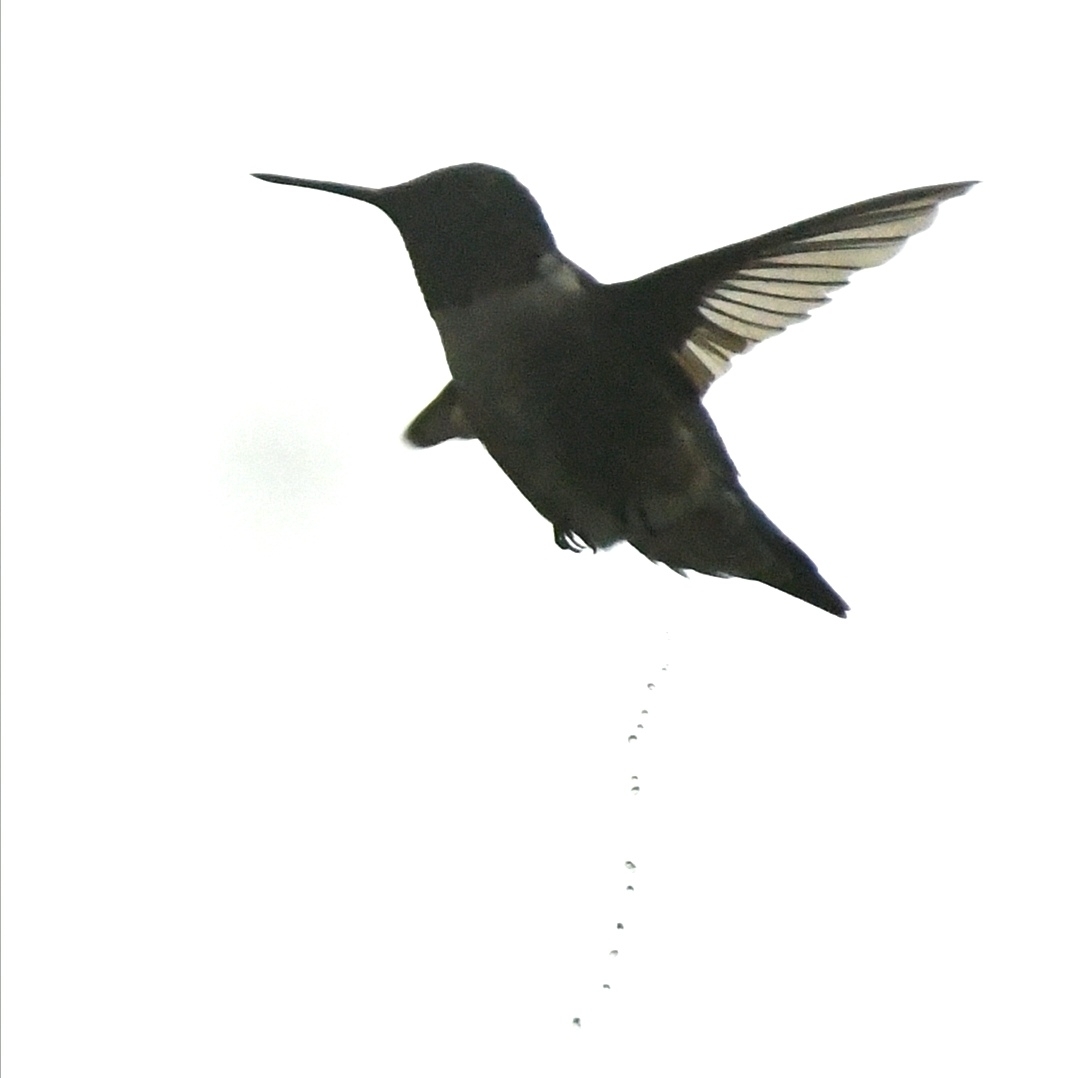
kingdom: Animalia
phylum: Chordata
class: Aves
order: Apodiformes
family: Trochilidae
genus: Archilochus
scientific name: Archilochus colubris
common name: Ruby-throated hummingbird
